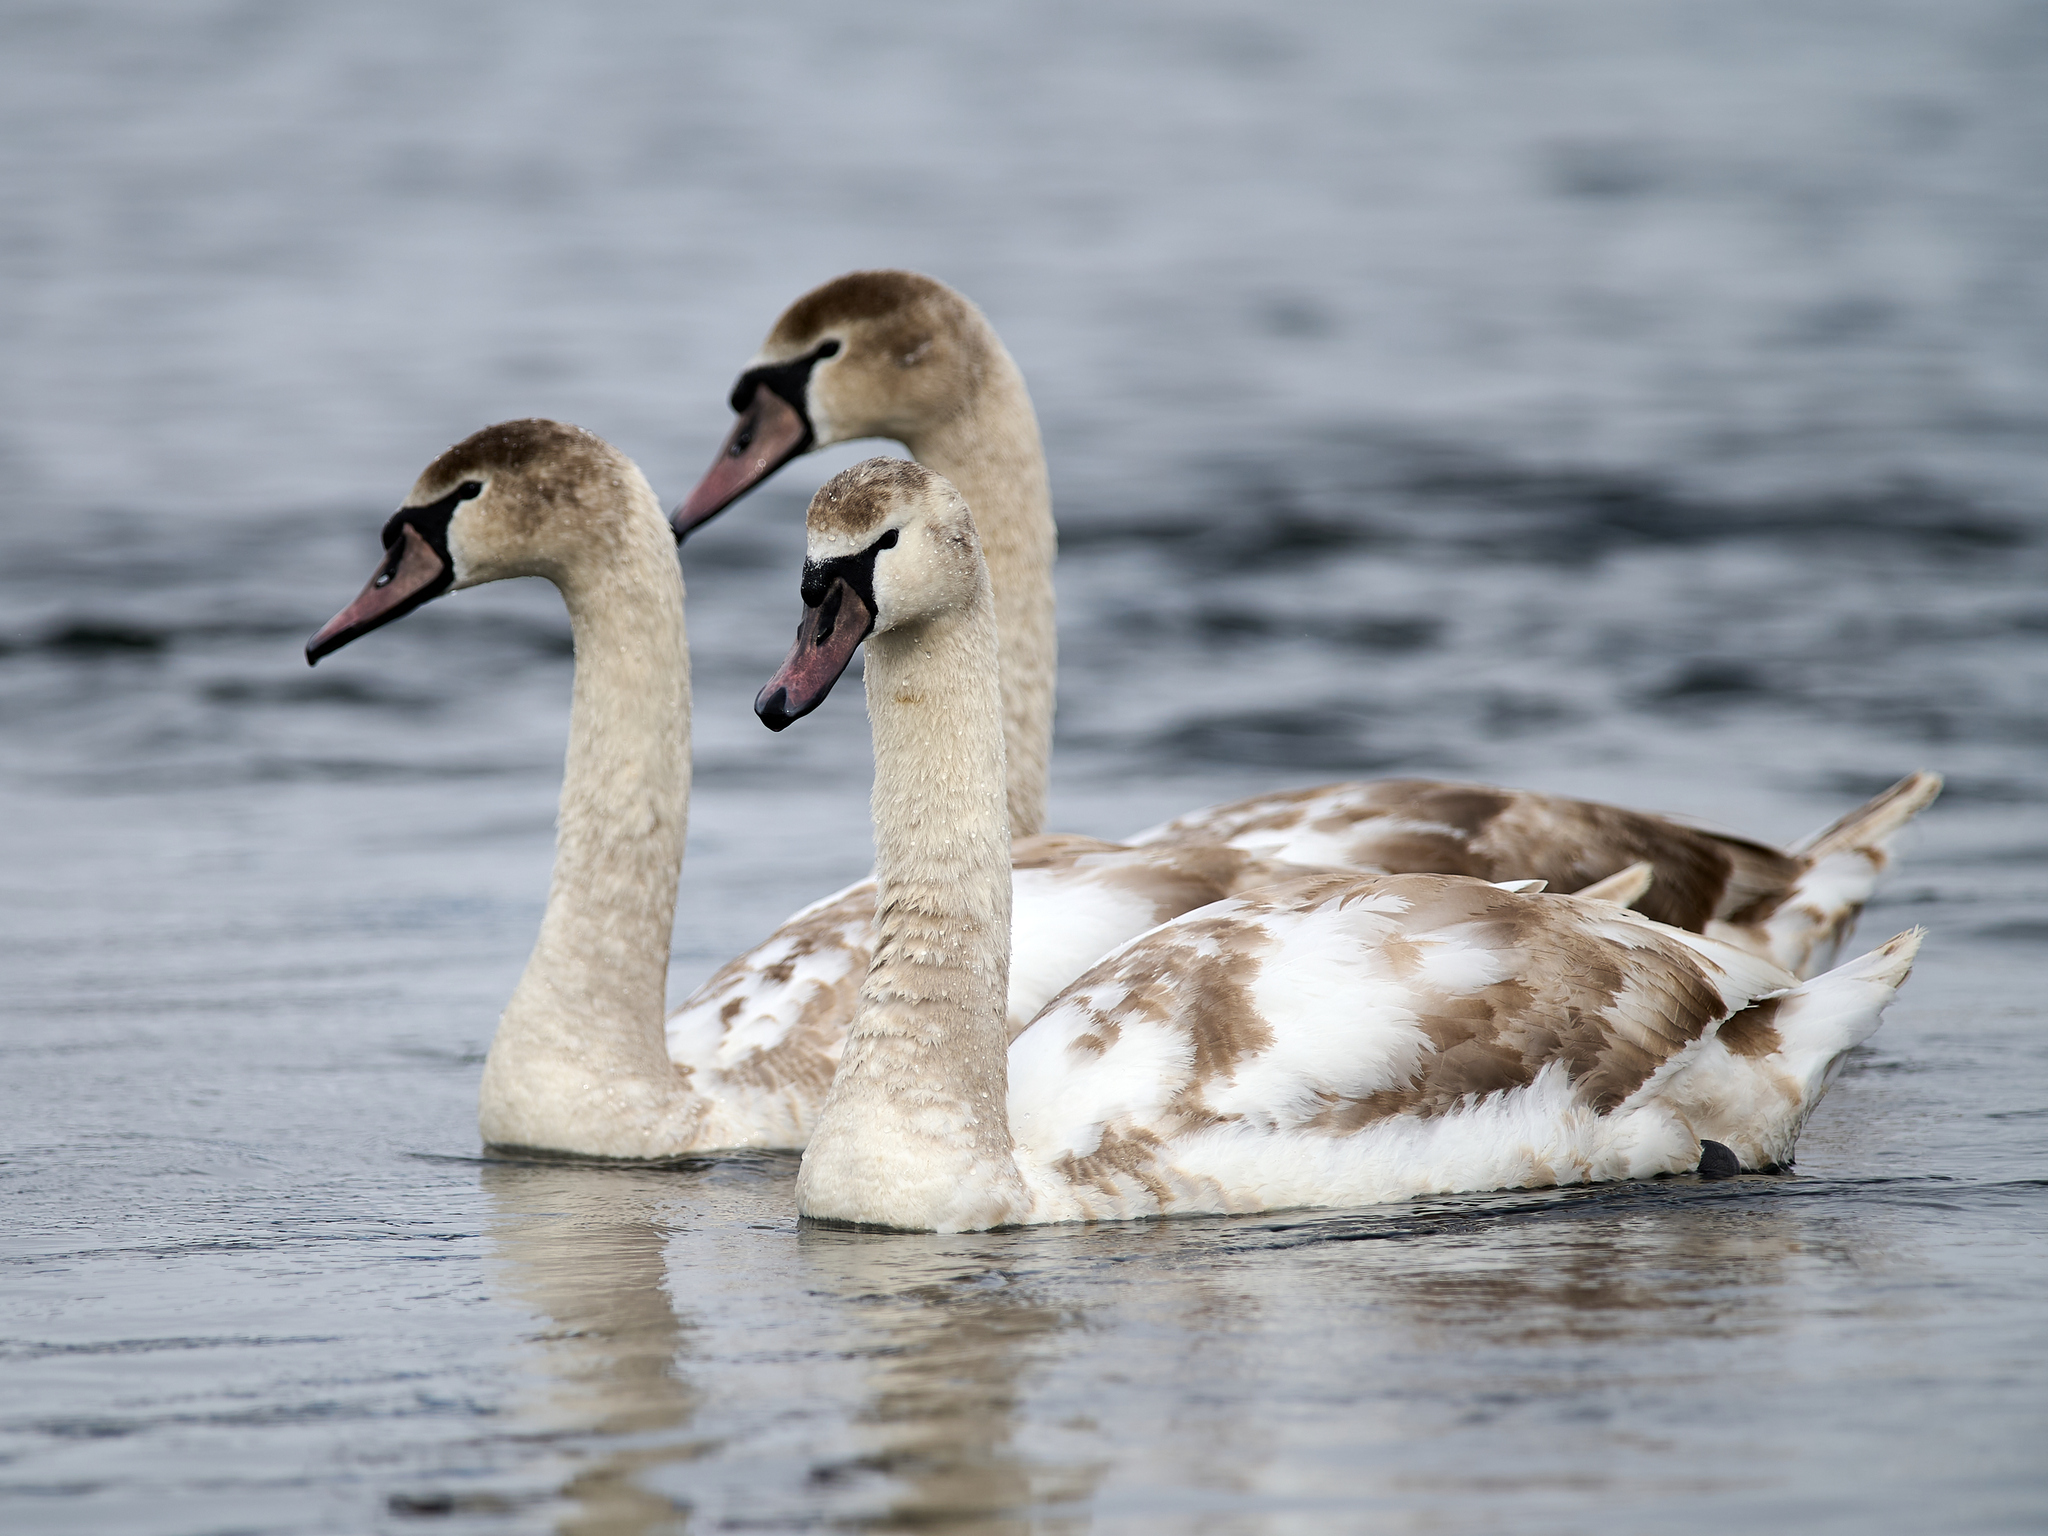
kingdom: Animalia
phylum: Chordata
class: Aves
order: Anseriformes
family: Anatidae
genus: Cygnus
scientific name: Cygnus olor
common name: Mute swan
